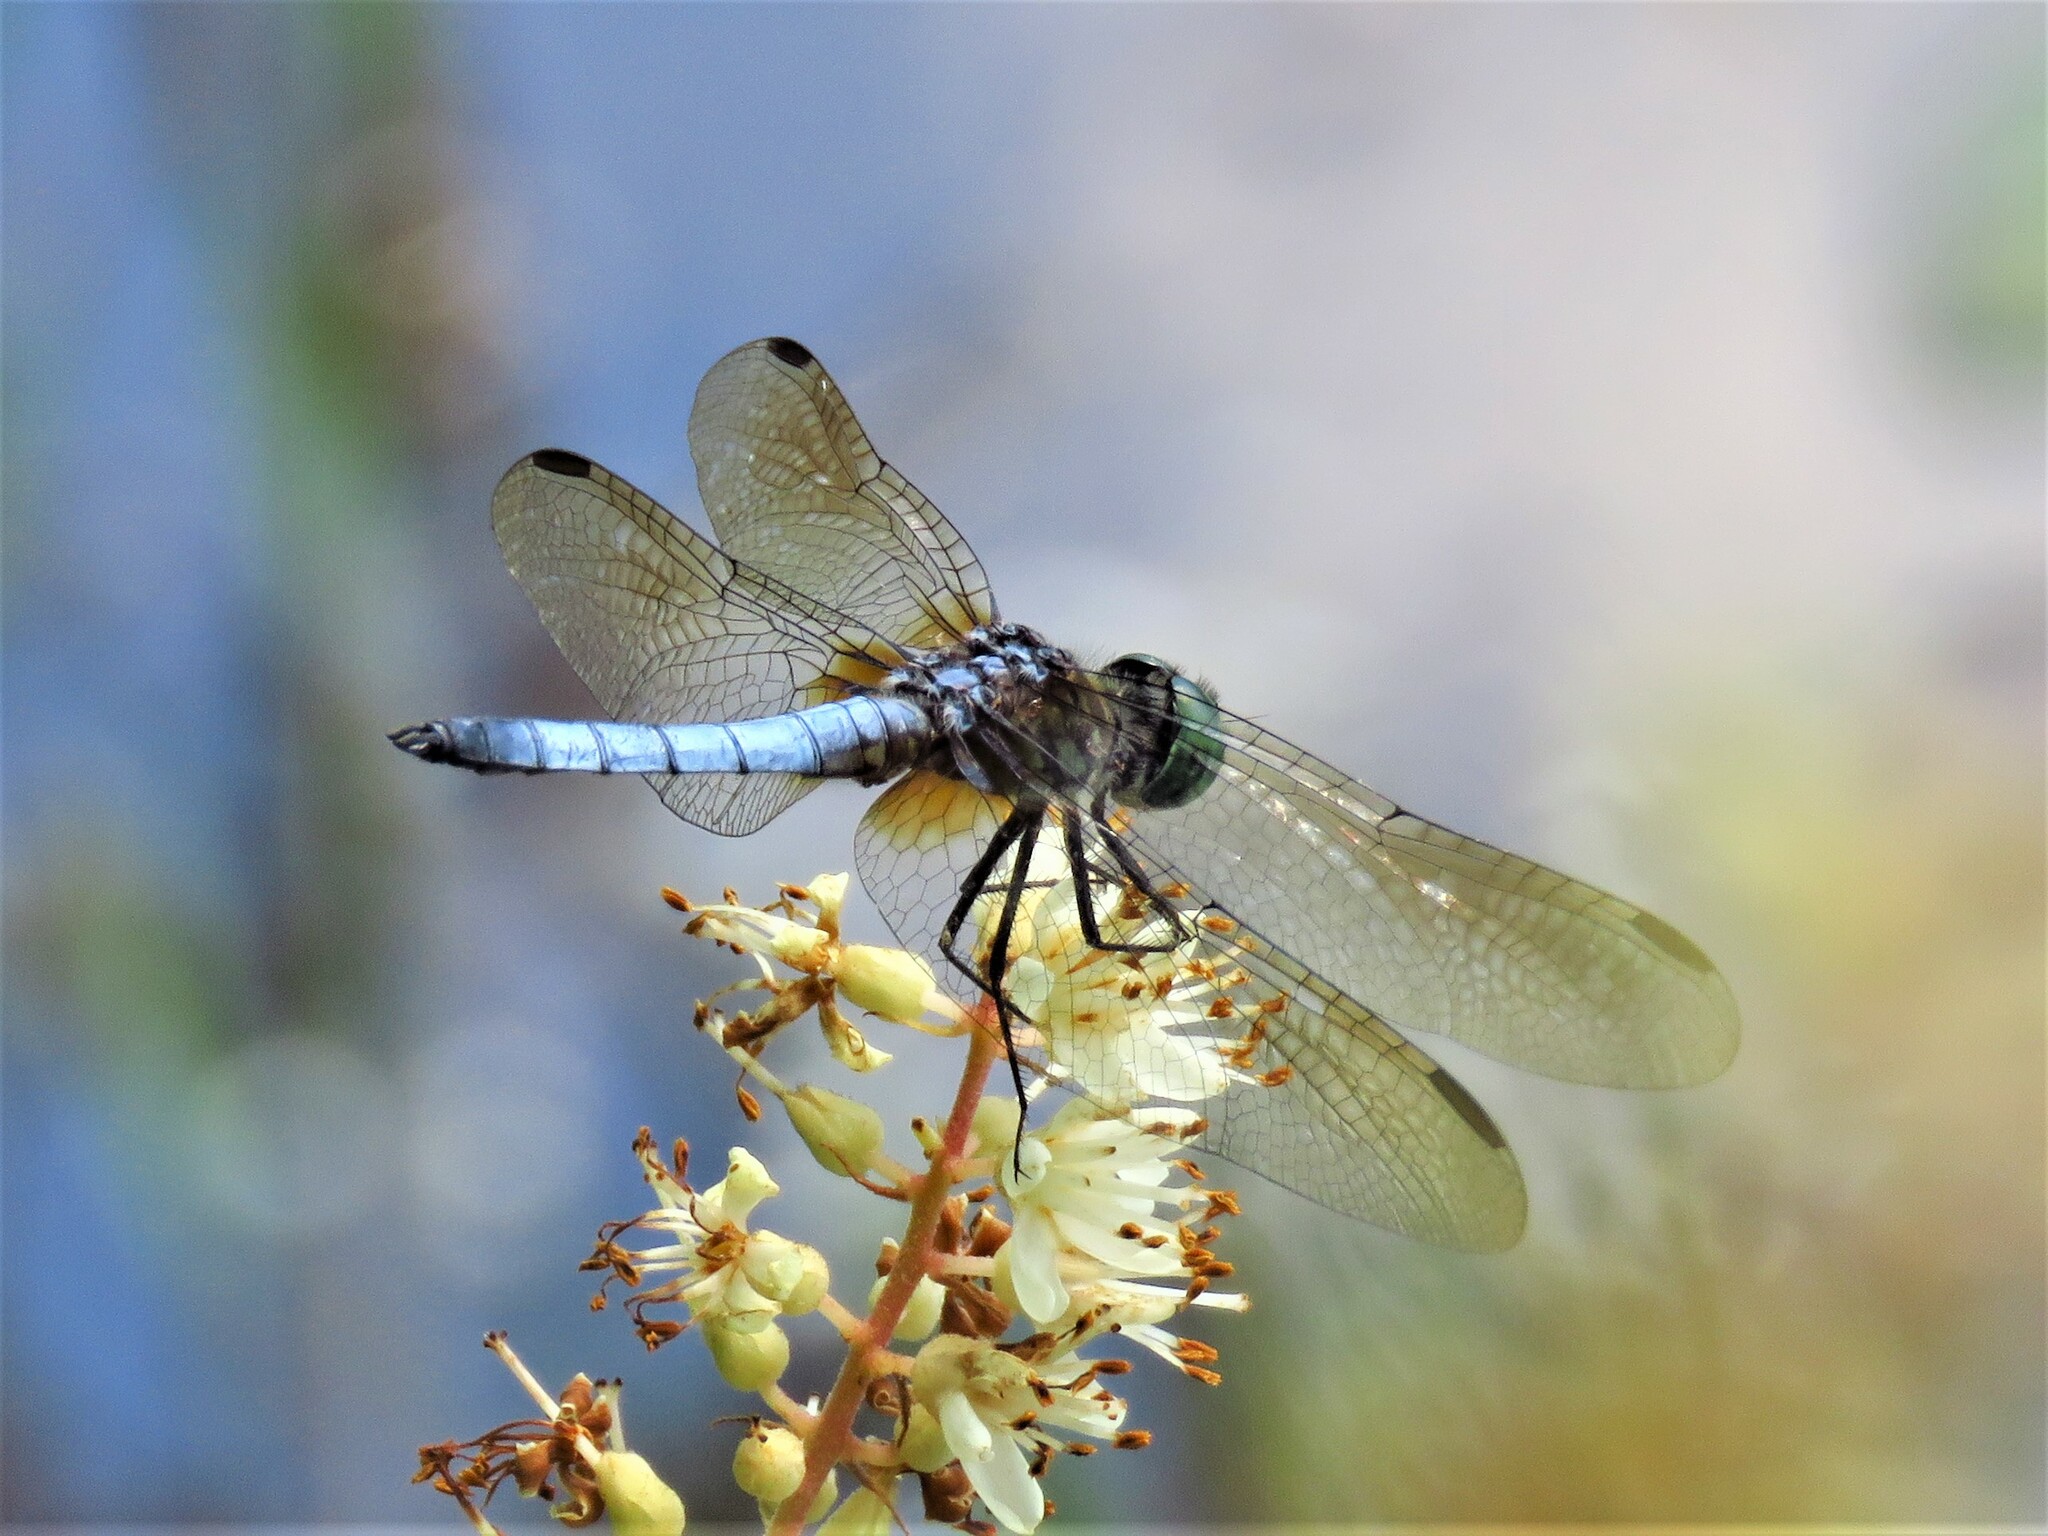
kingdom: Animalia
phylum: Arthropoda
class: Insecta
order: Odonata
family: Libellulidae
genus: Pachydiplax
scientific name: Pachydiplax longipennis
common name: Blue dasher
